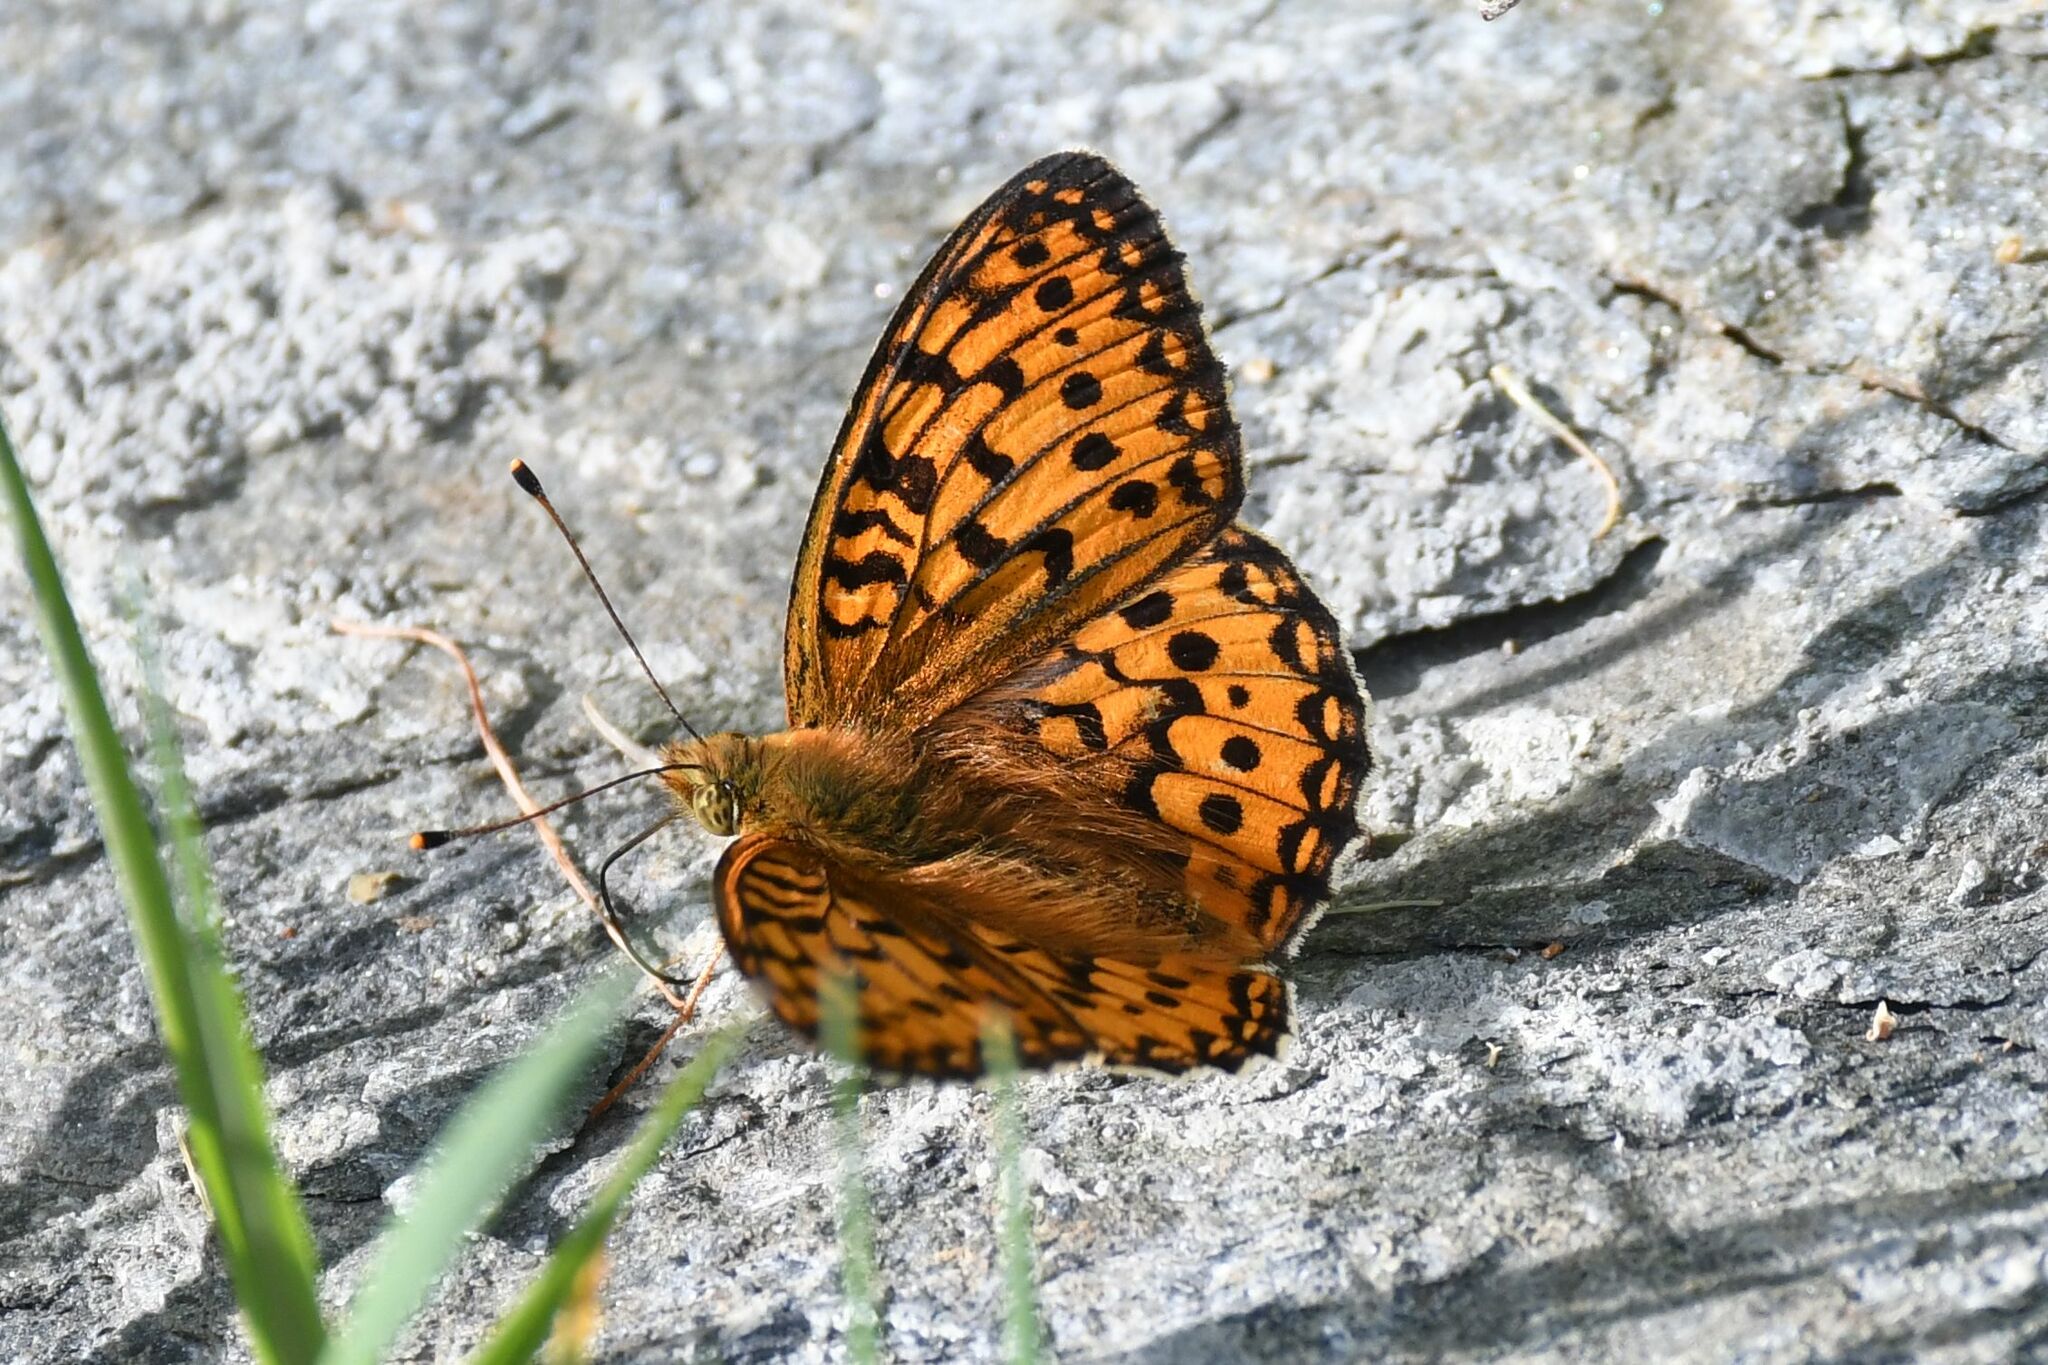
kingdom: Animalia
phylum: Arthropoda
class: Insecta
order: Lepidoptera
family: Nymphalidae
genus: Speyeria
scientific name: Speyeria aglaja
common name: Dark green fritillary
